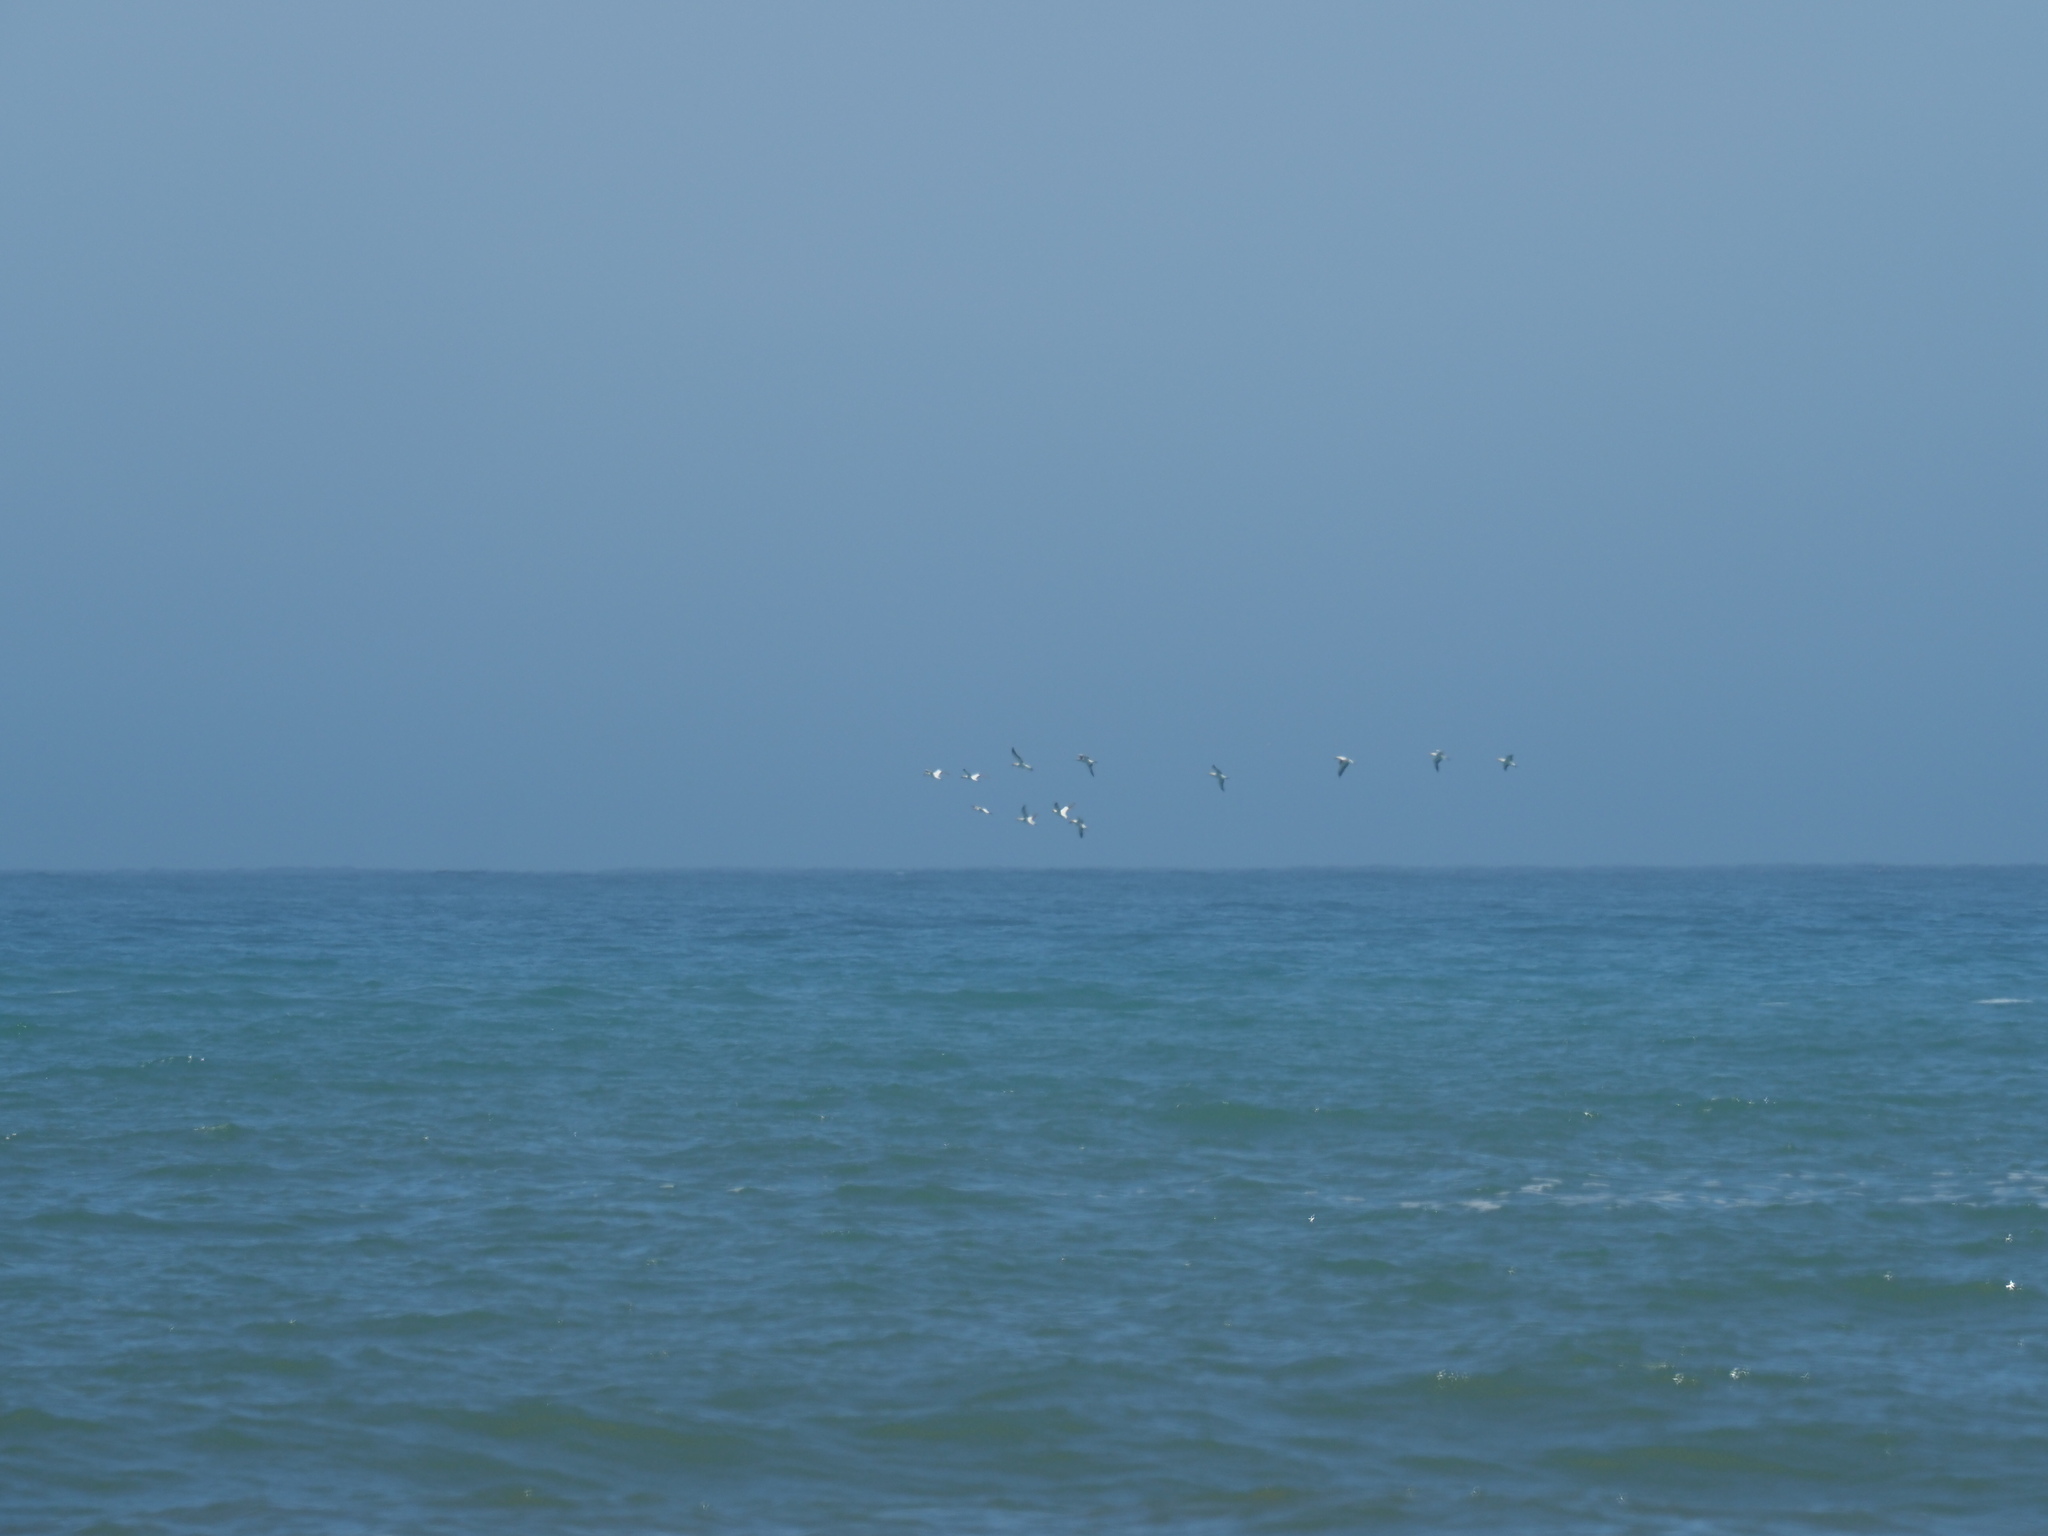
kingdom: Animalia
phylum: Chordata
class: Aves
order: Suliformes
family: Sulidae
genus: Morus
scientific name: Morus capensis
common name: Cape gannet
